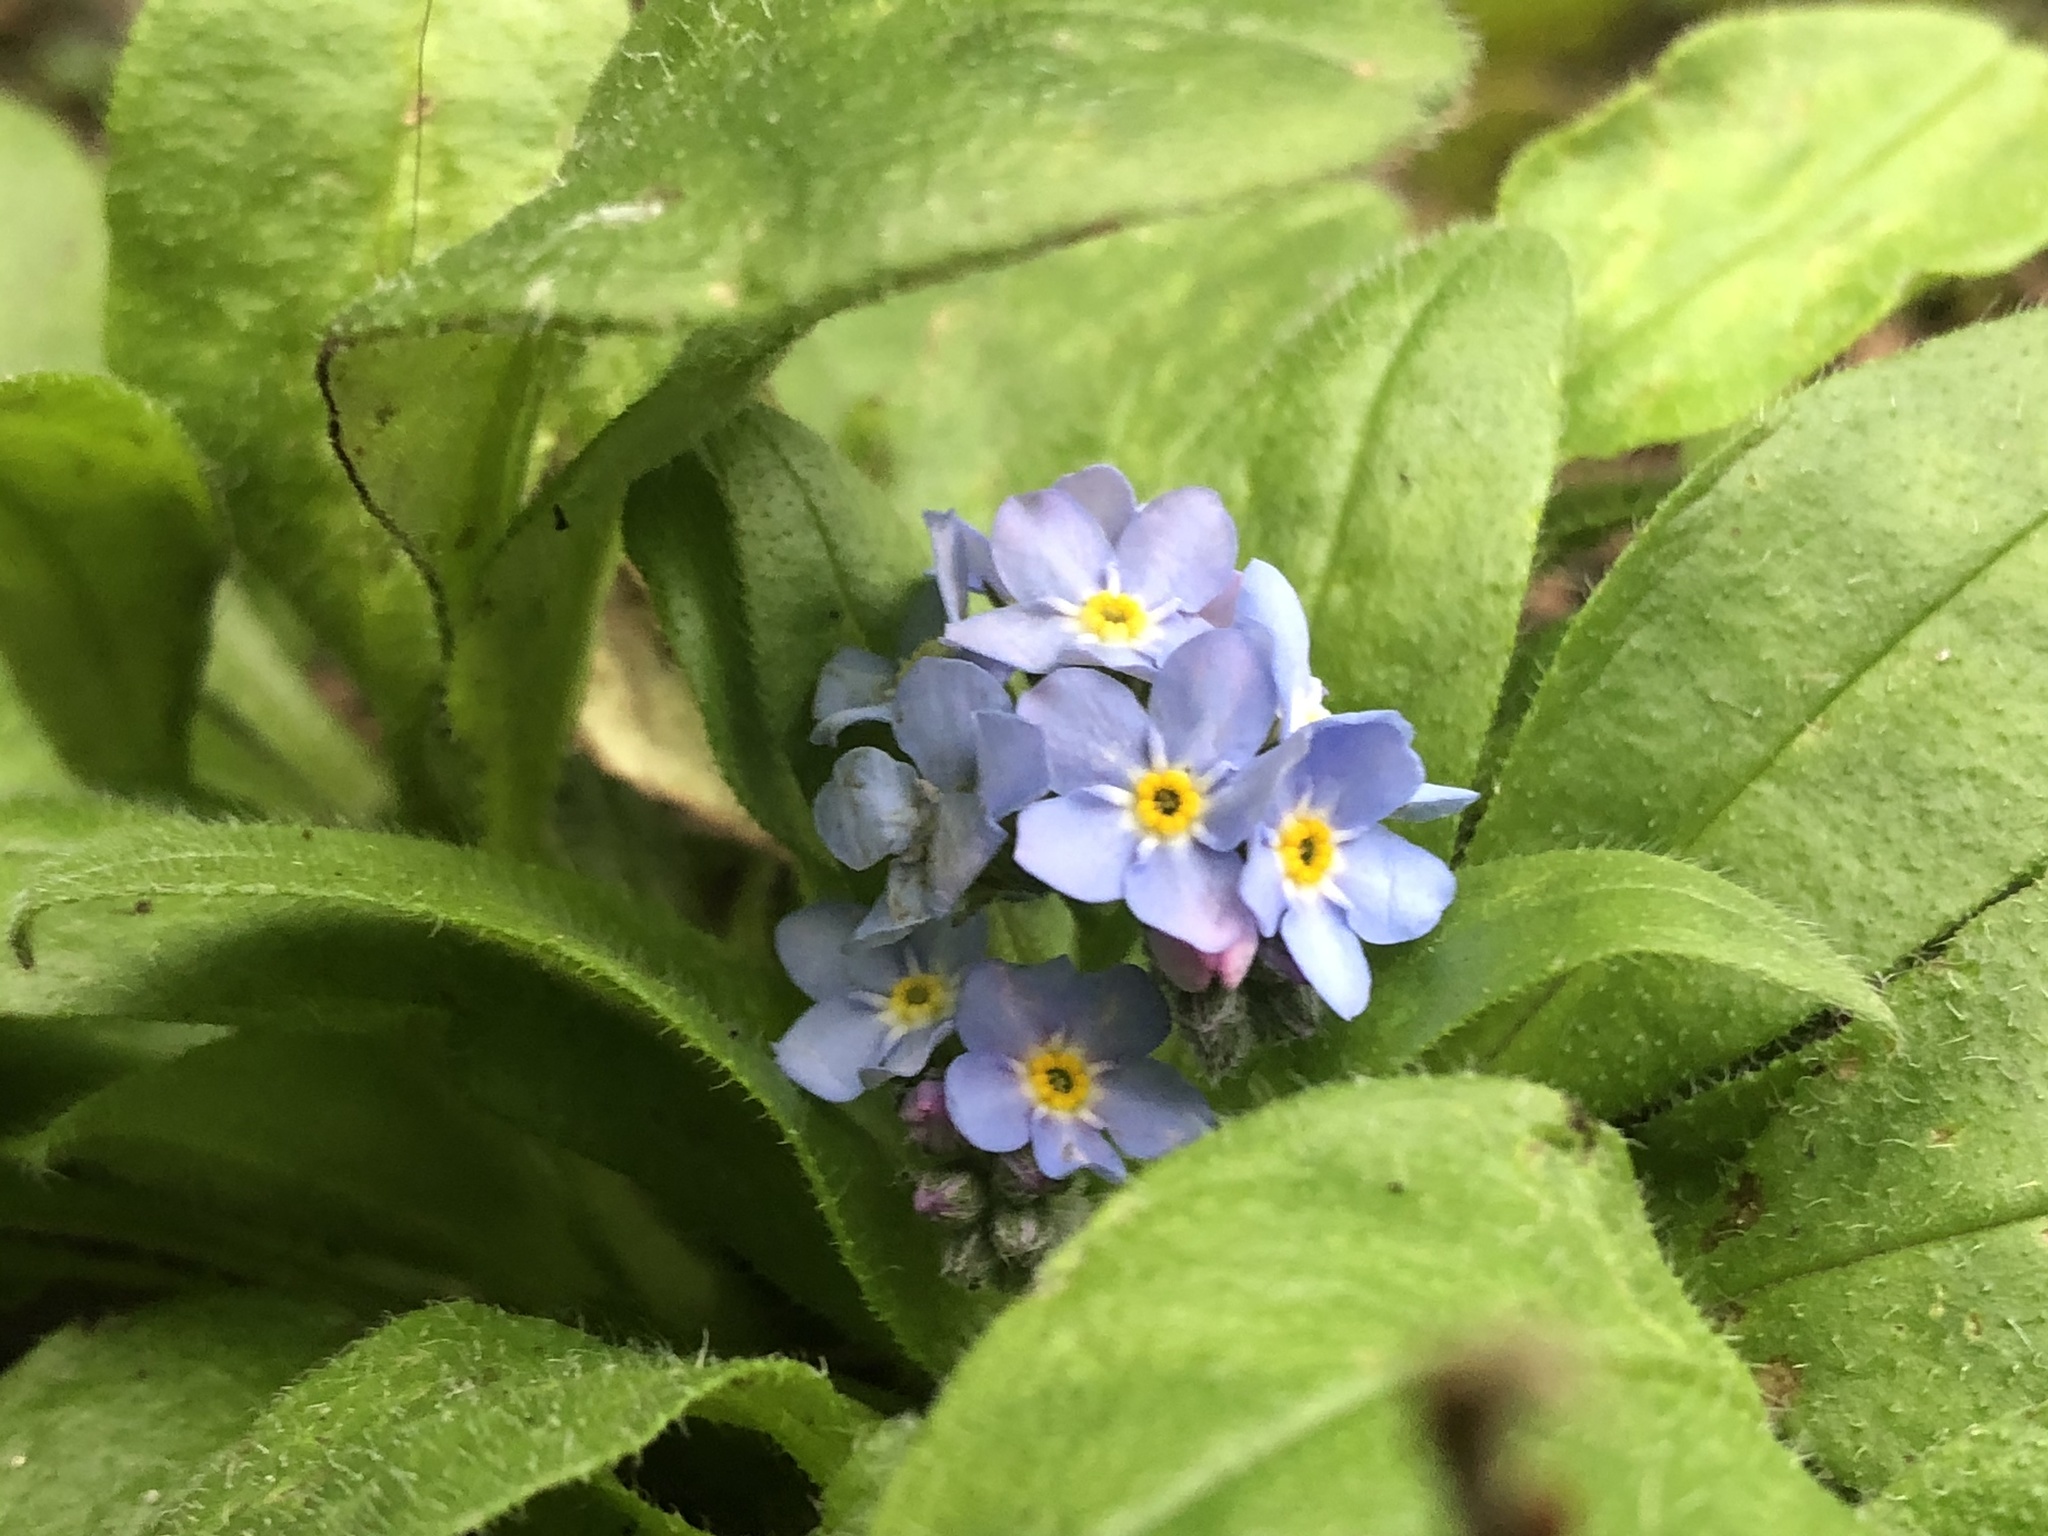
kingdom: Plantae
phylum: Tracheophyta
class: Magnoliopsida
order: Boraginales
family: Boraginaceae
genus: Myosotis
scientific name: Myosotis sylvatica
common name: Wood forget-me-not
